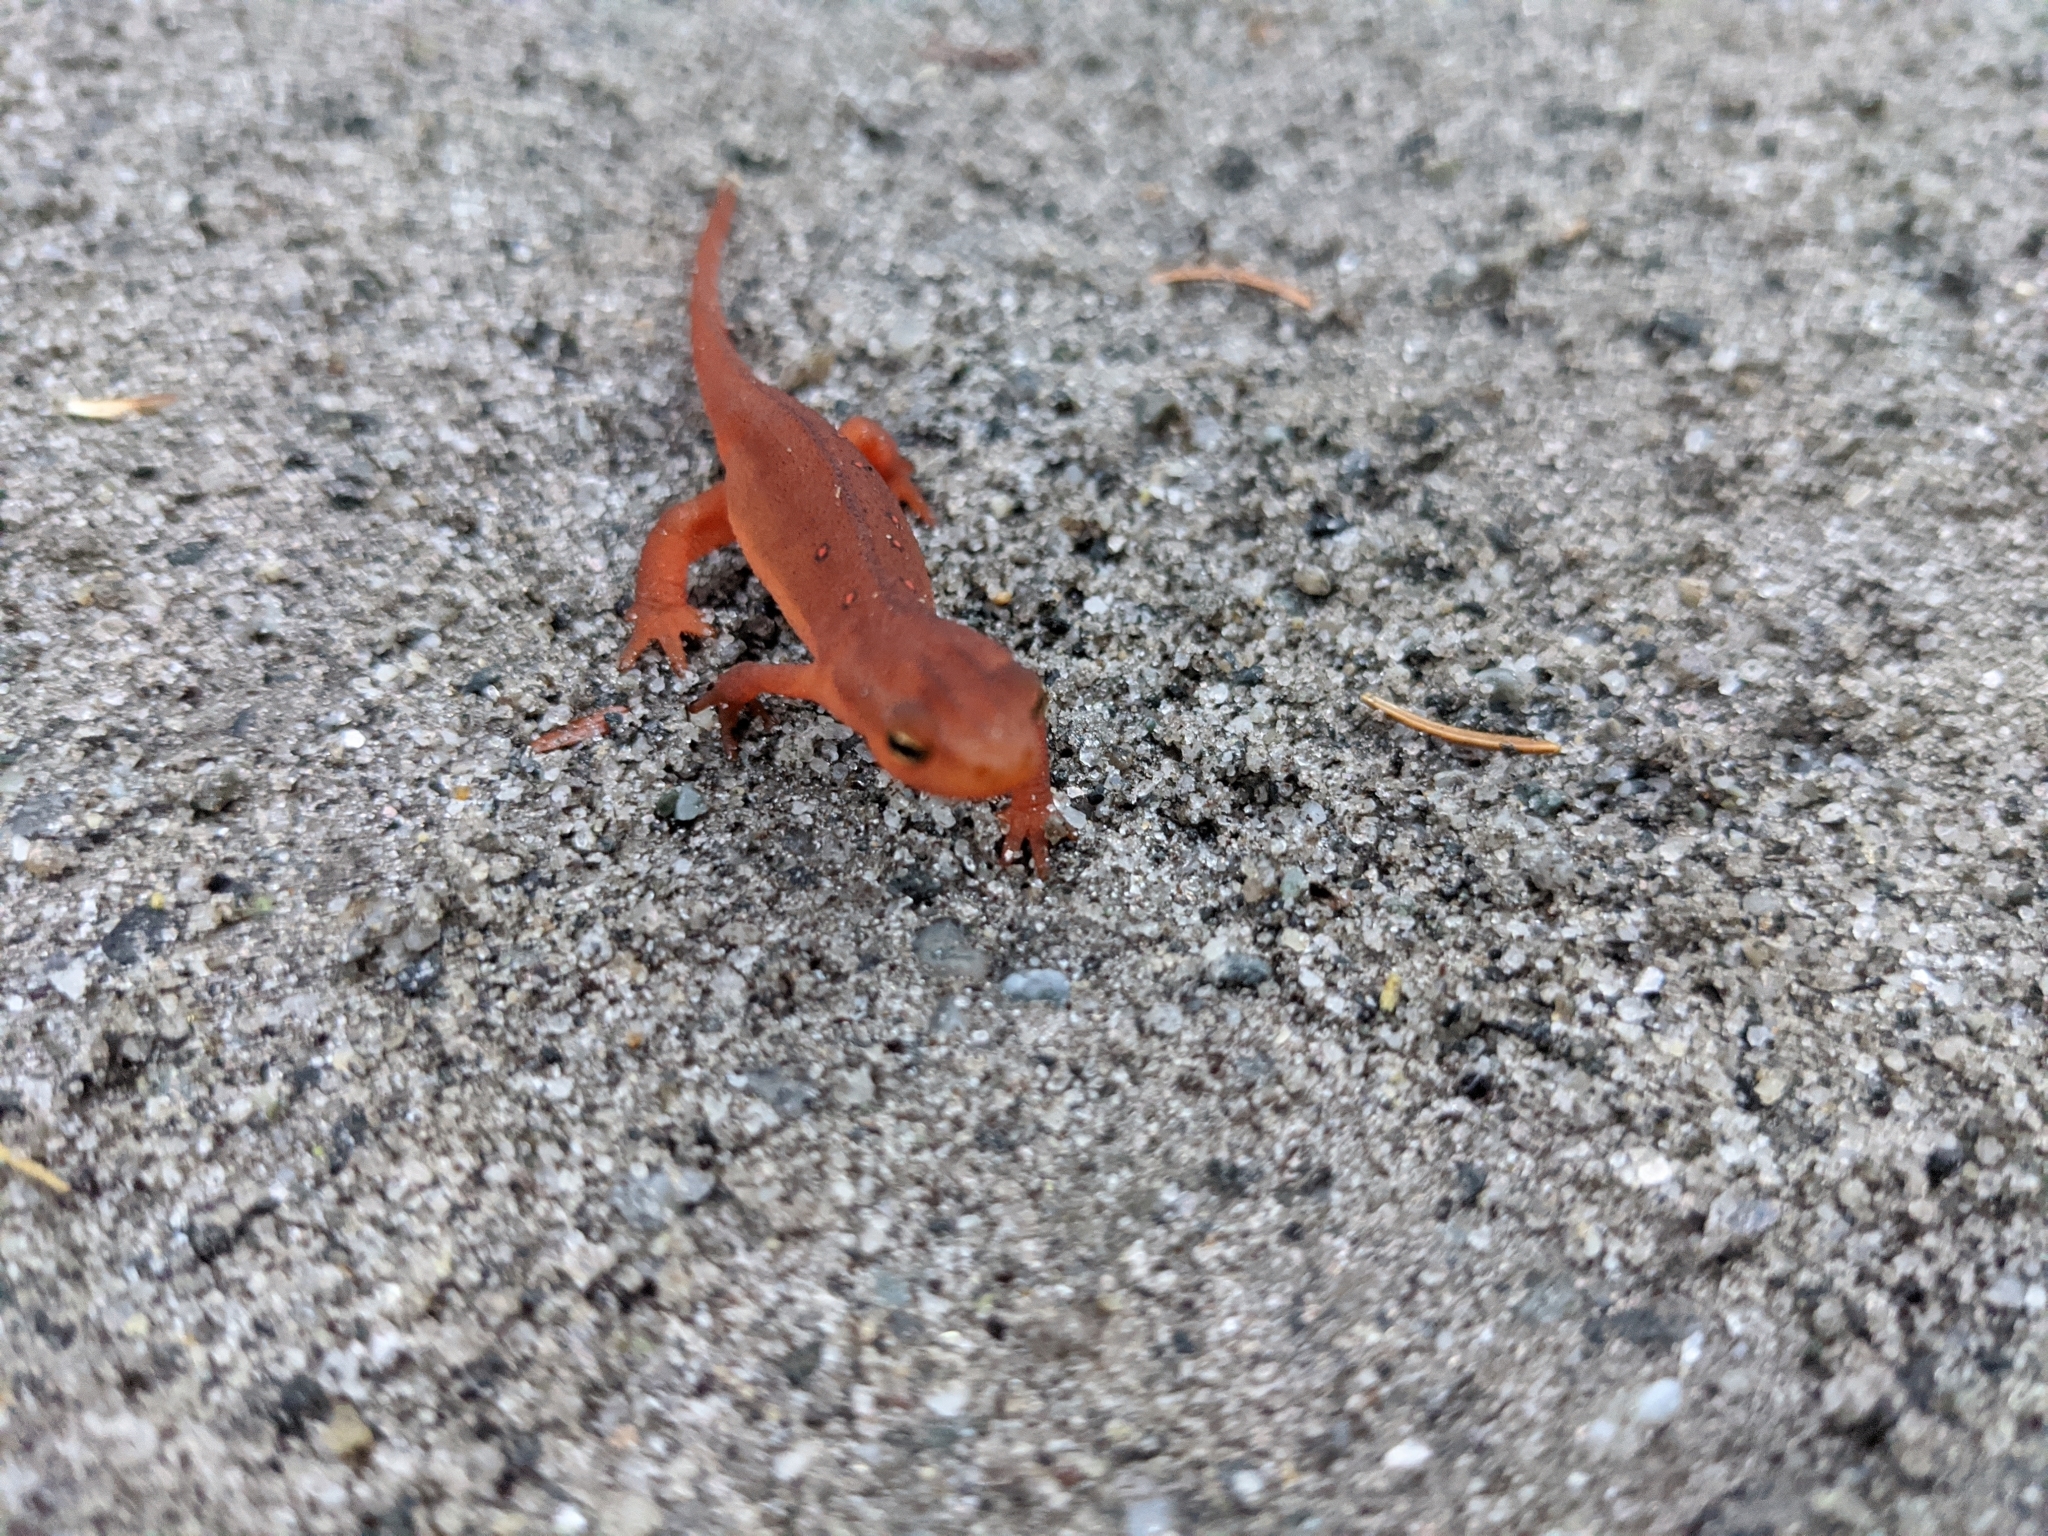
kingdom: Animalia
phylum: Chordata
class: Amphibia
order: Caudata
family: Salamandridae
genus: Notophthalmus
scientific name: Notophthalmus viridescens
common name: Eastern newt
